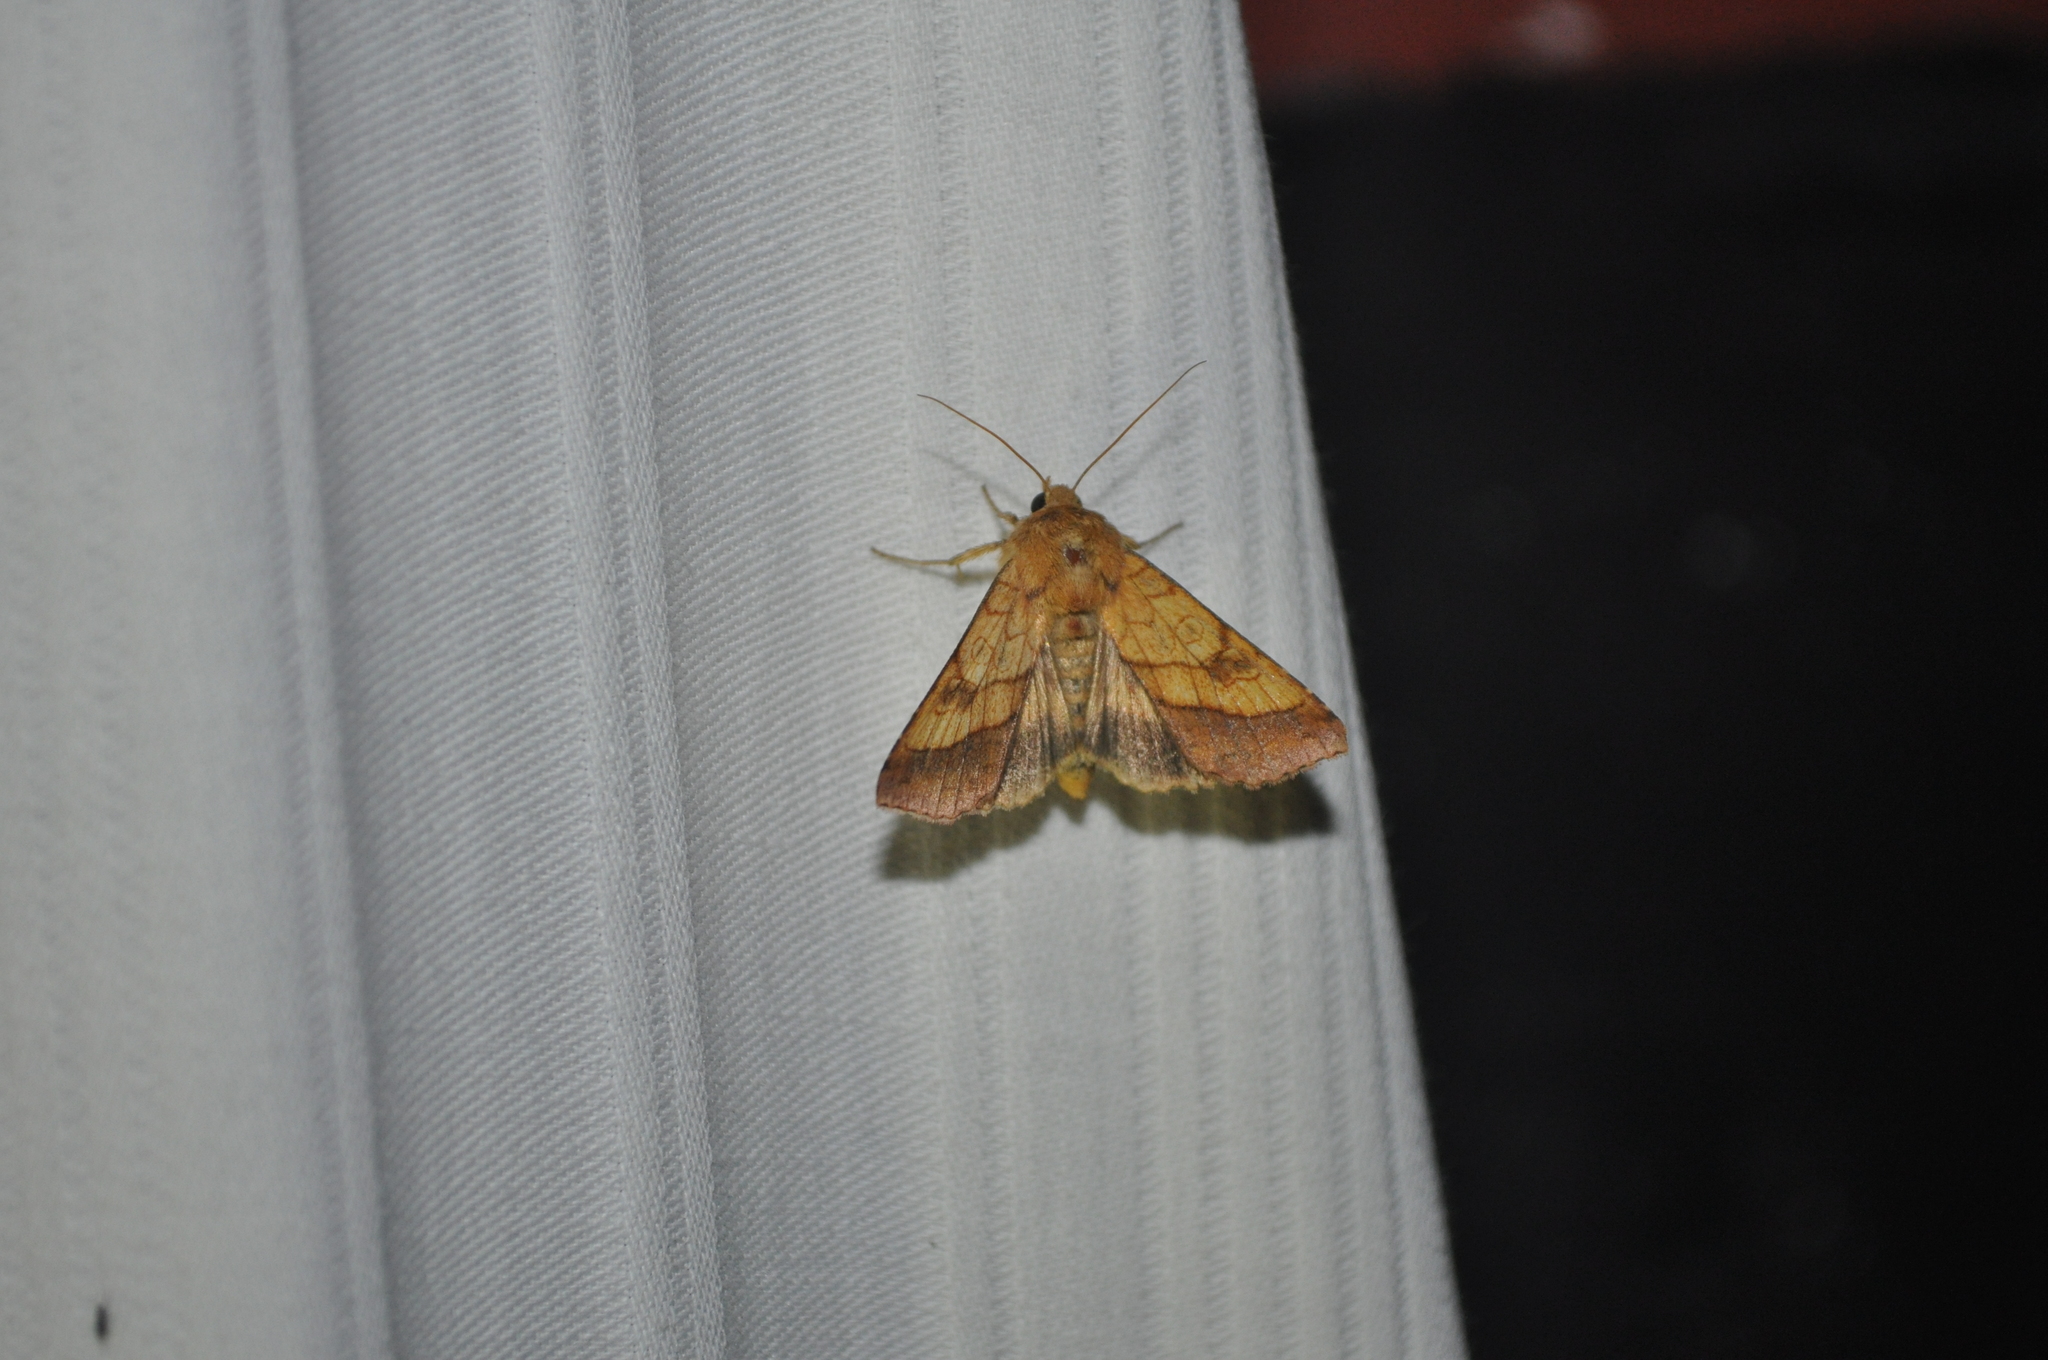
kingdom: Animalia
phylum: Arthropoda
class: Insecta
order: Lepidoptera
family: Noctuidae
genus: Pyrrhia
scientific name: Pyrrhia umbra
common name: Bordered sallow
